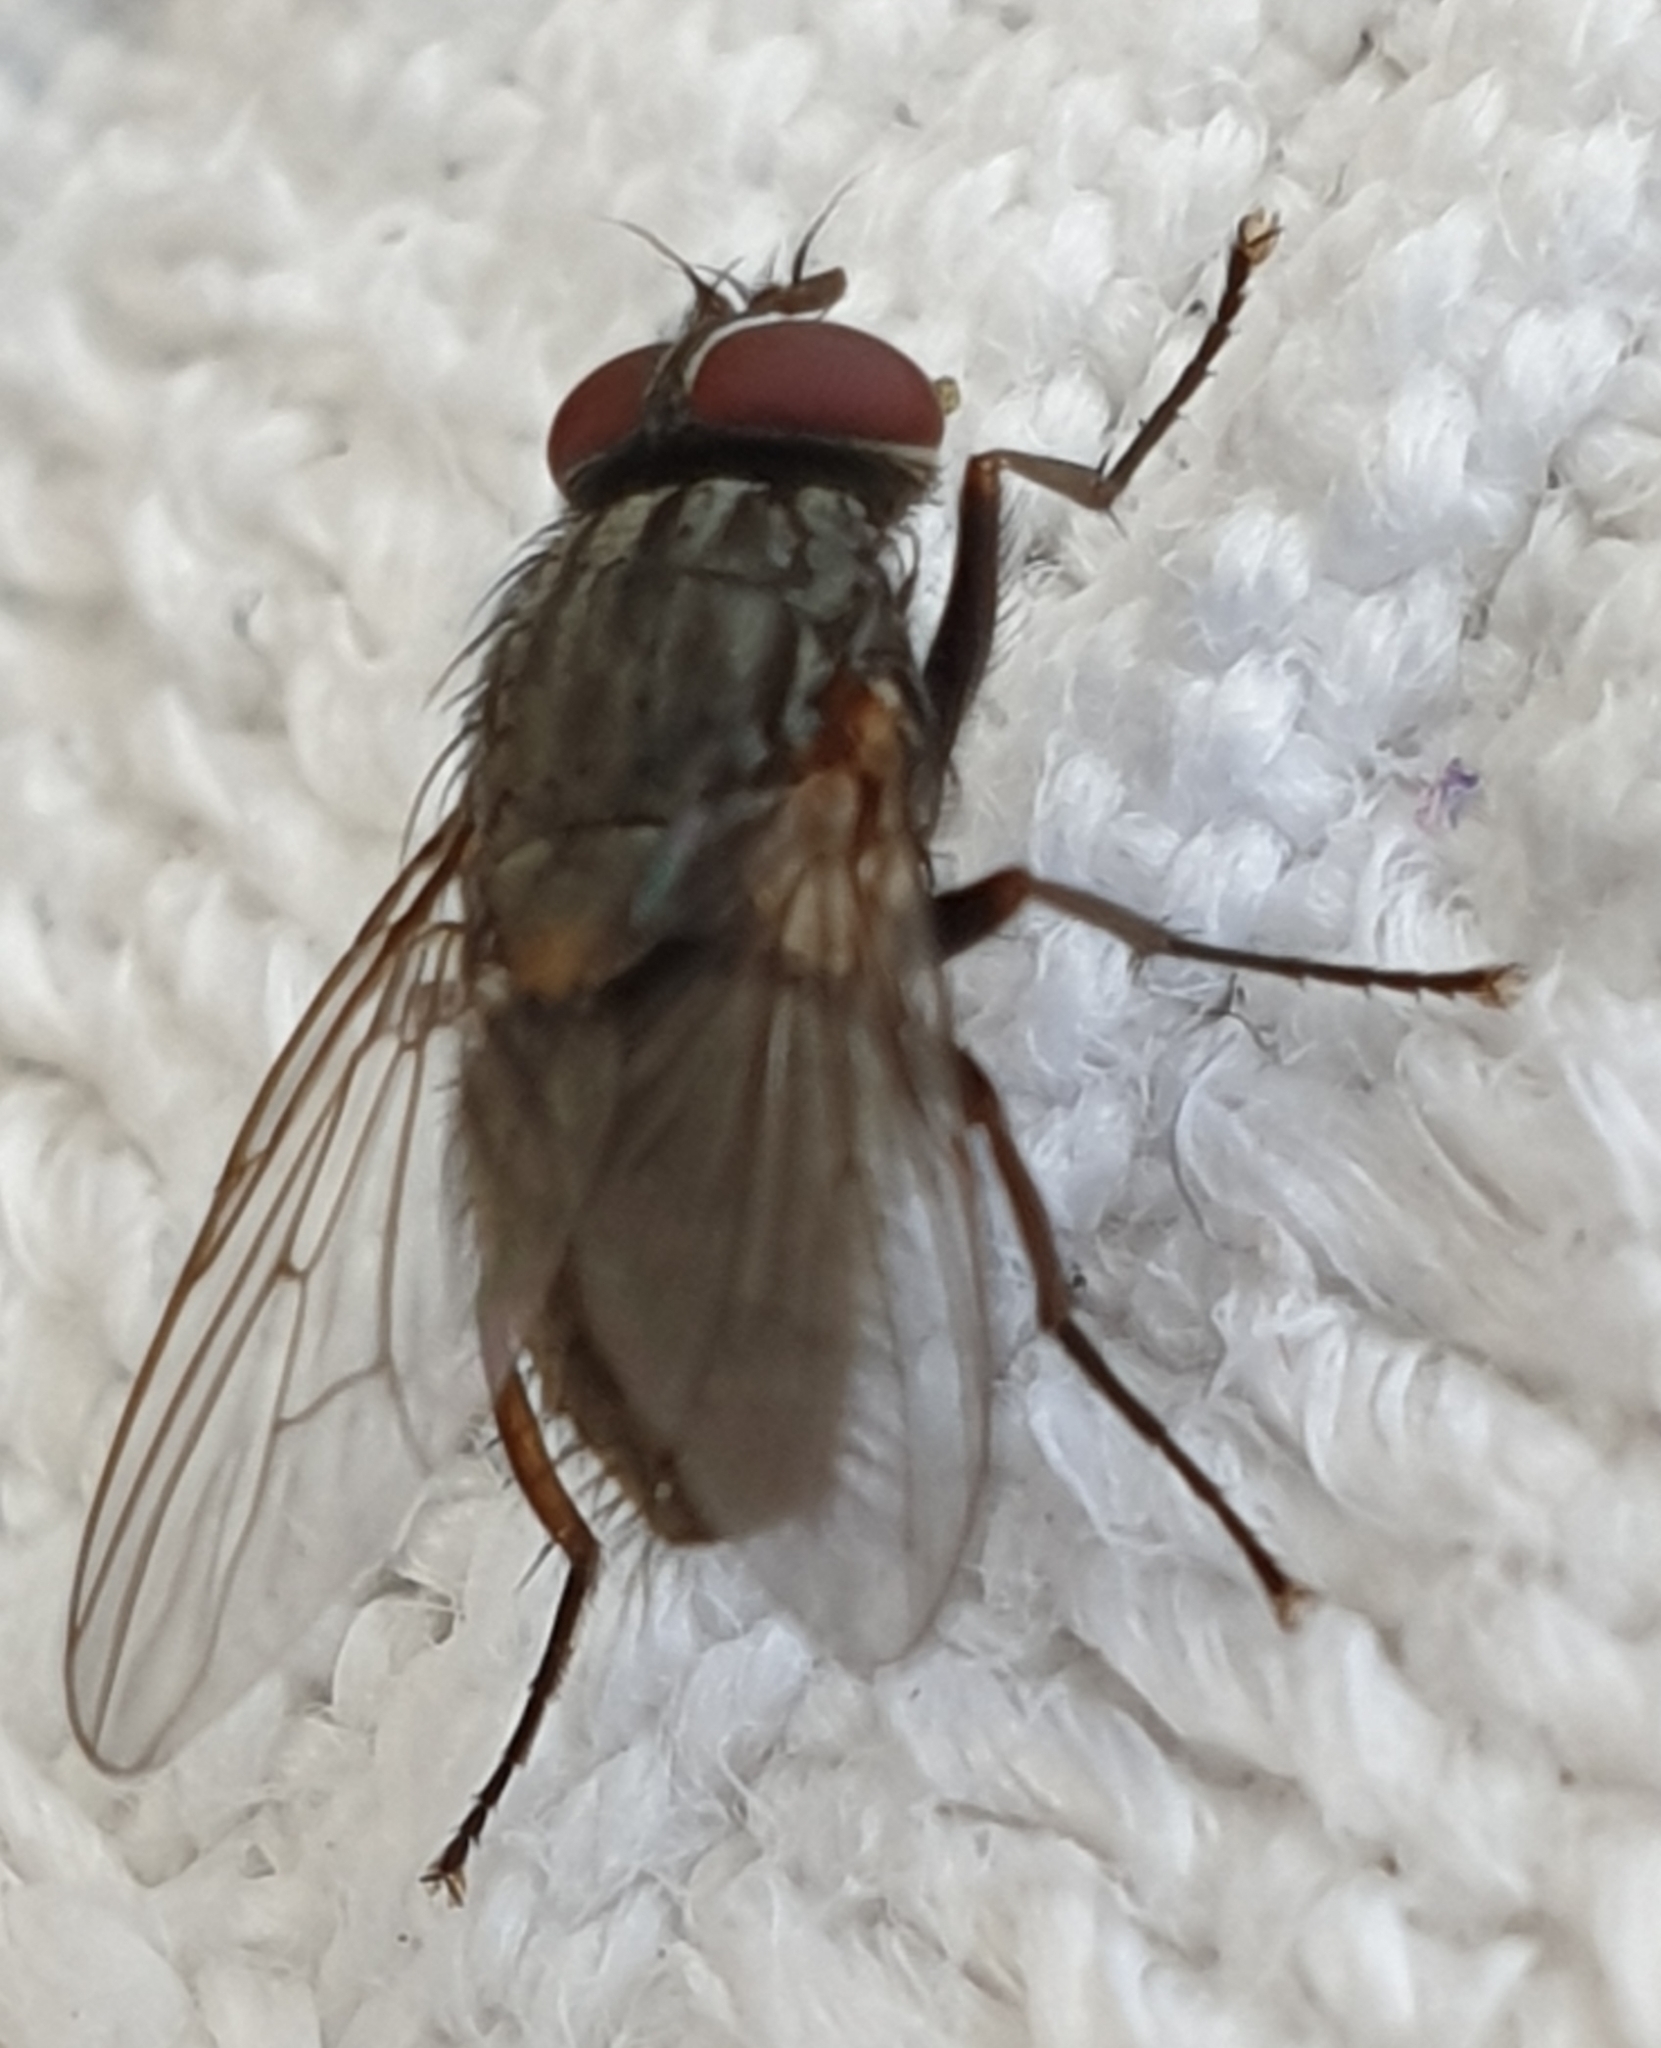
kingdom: Animalia
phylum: Arthropoda
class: Insecta
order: Diptera
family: Muscidae
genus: Muscina
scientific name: Muscina stabulans
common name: False stable fly
